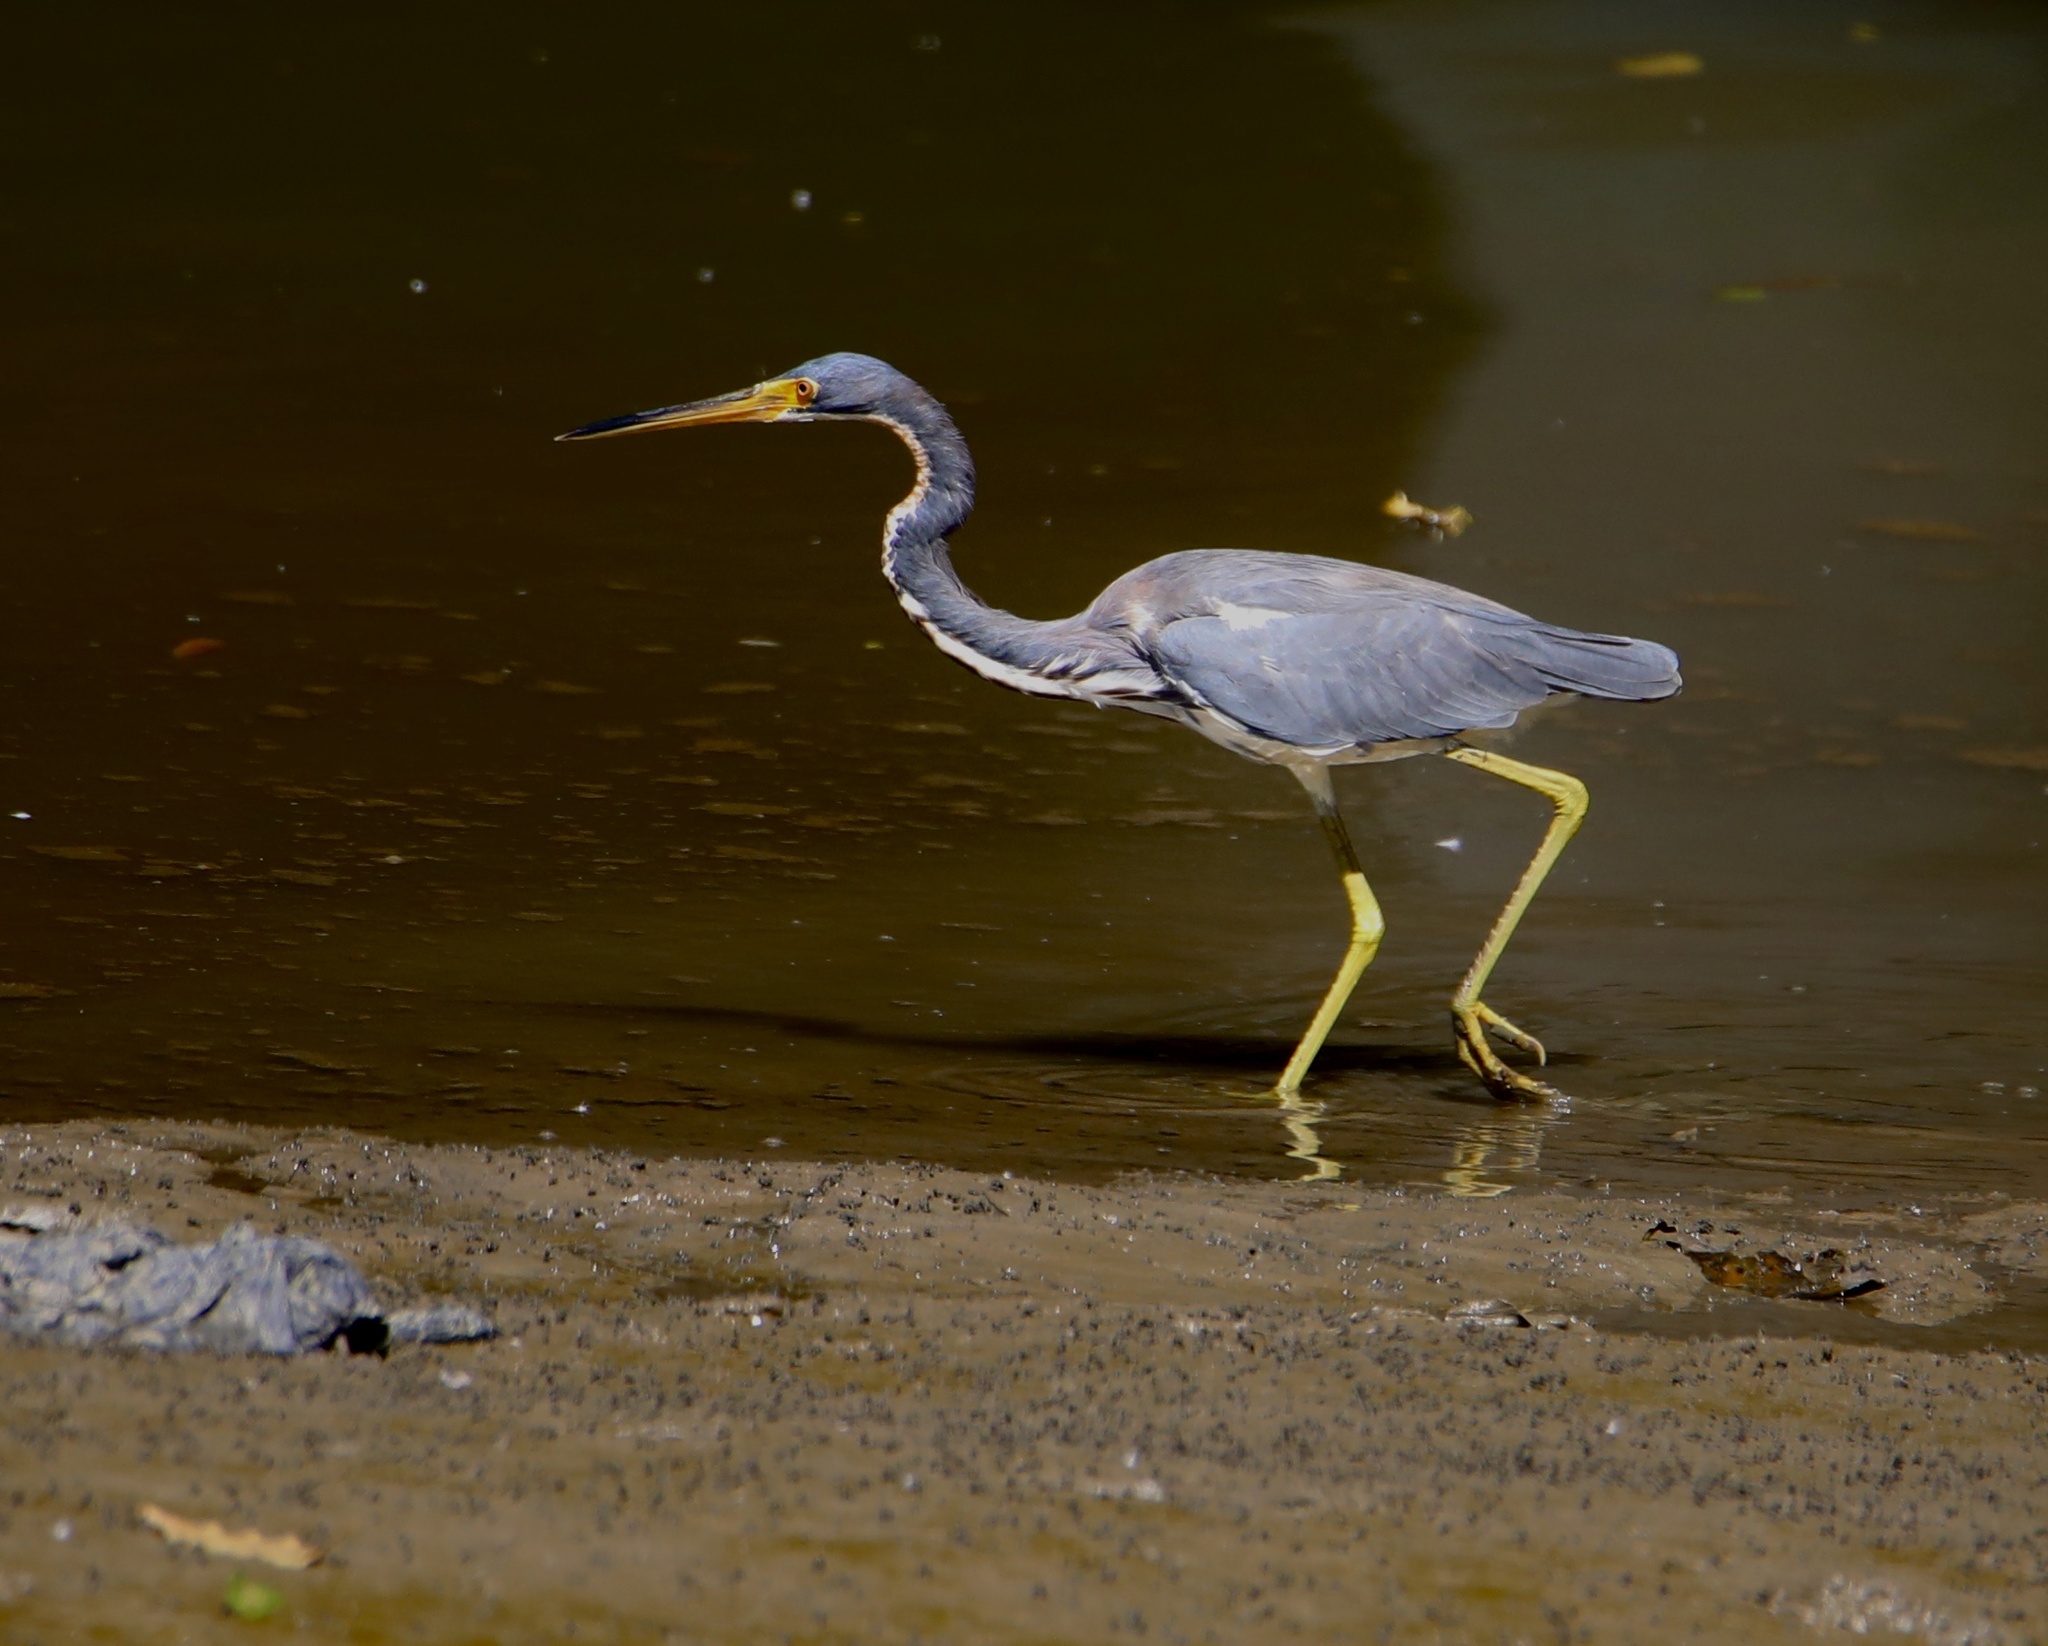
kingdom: Animalia
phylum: Chordata
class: Aves
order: Pelecaniformes
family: Ardeidae
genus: Egretta
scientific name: Egretta tricolor
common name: Tricolored heron
